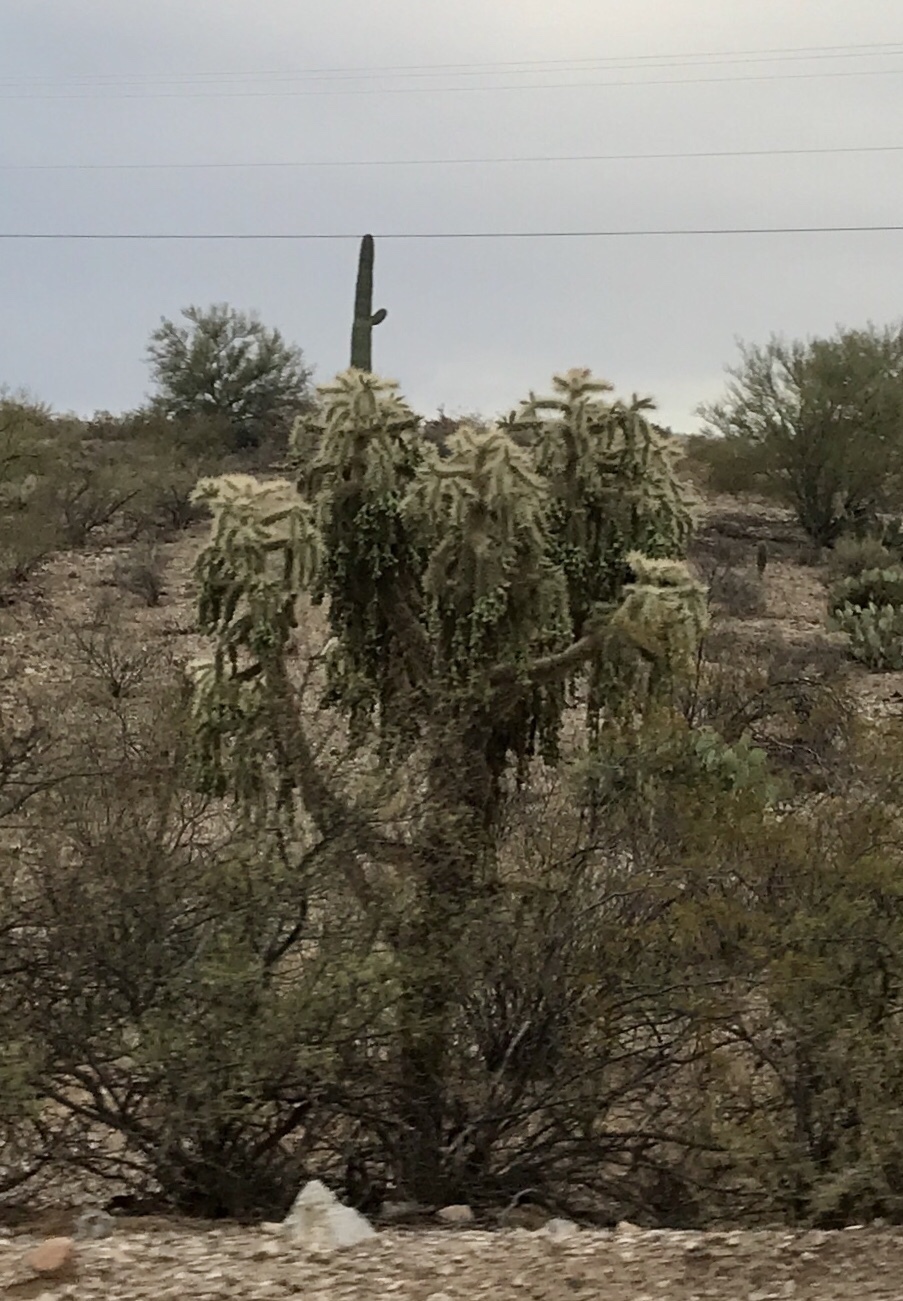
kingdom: Plantae
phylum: Tracheophyta
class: Magnoliopsida
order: Caryophyllales
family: Cactaceae
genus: Cylindropuntia
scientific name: Cylindropuntia fulgida
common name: Jumping cholla
